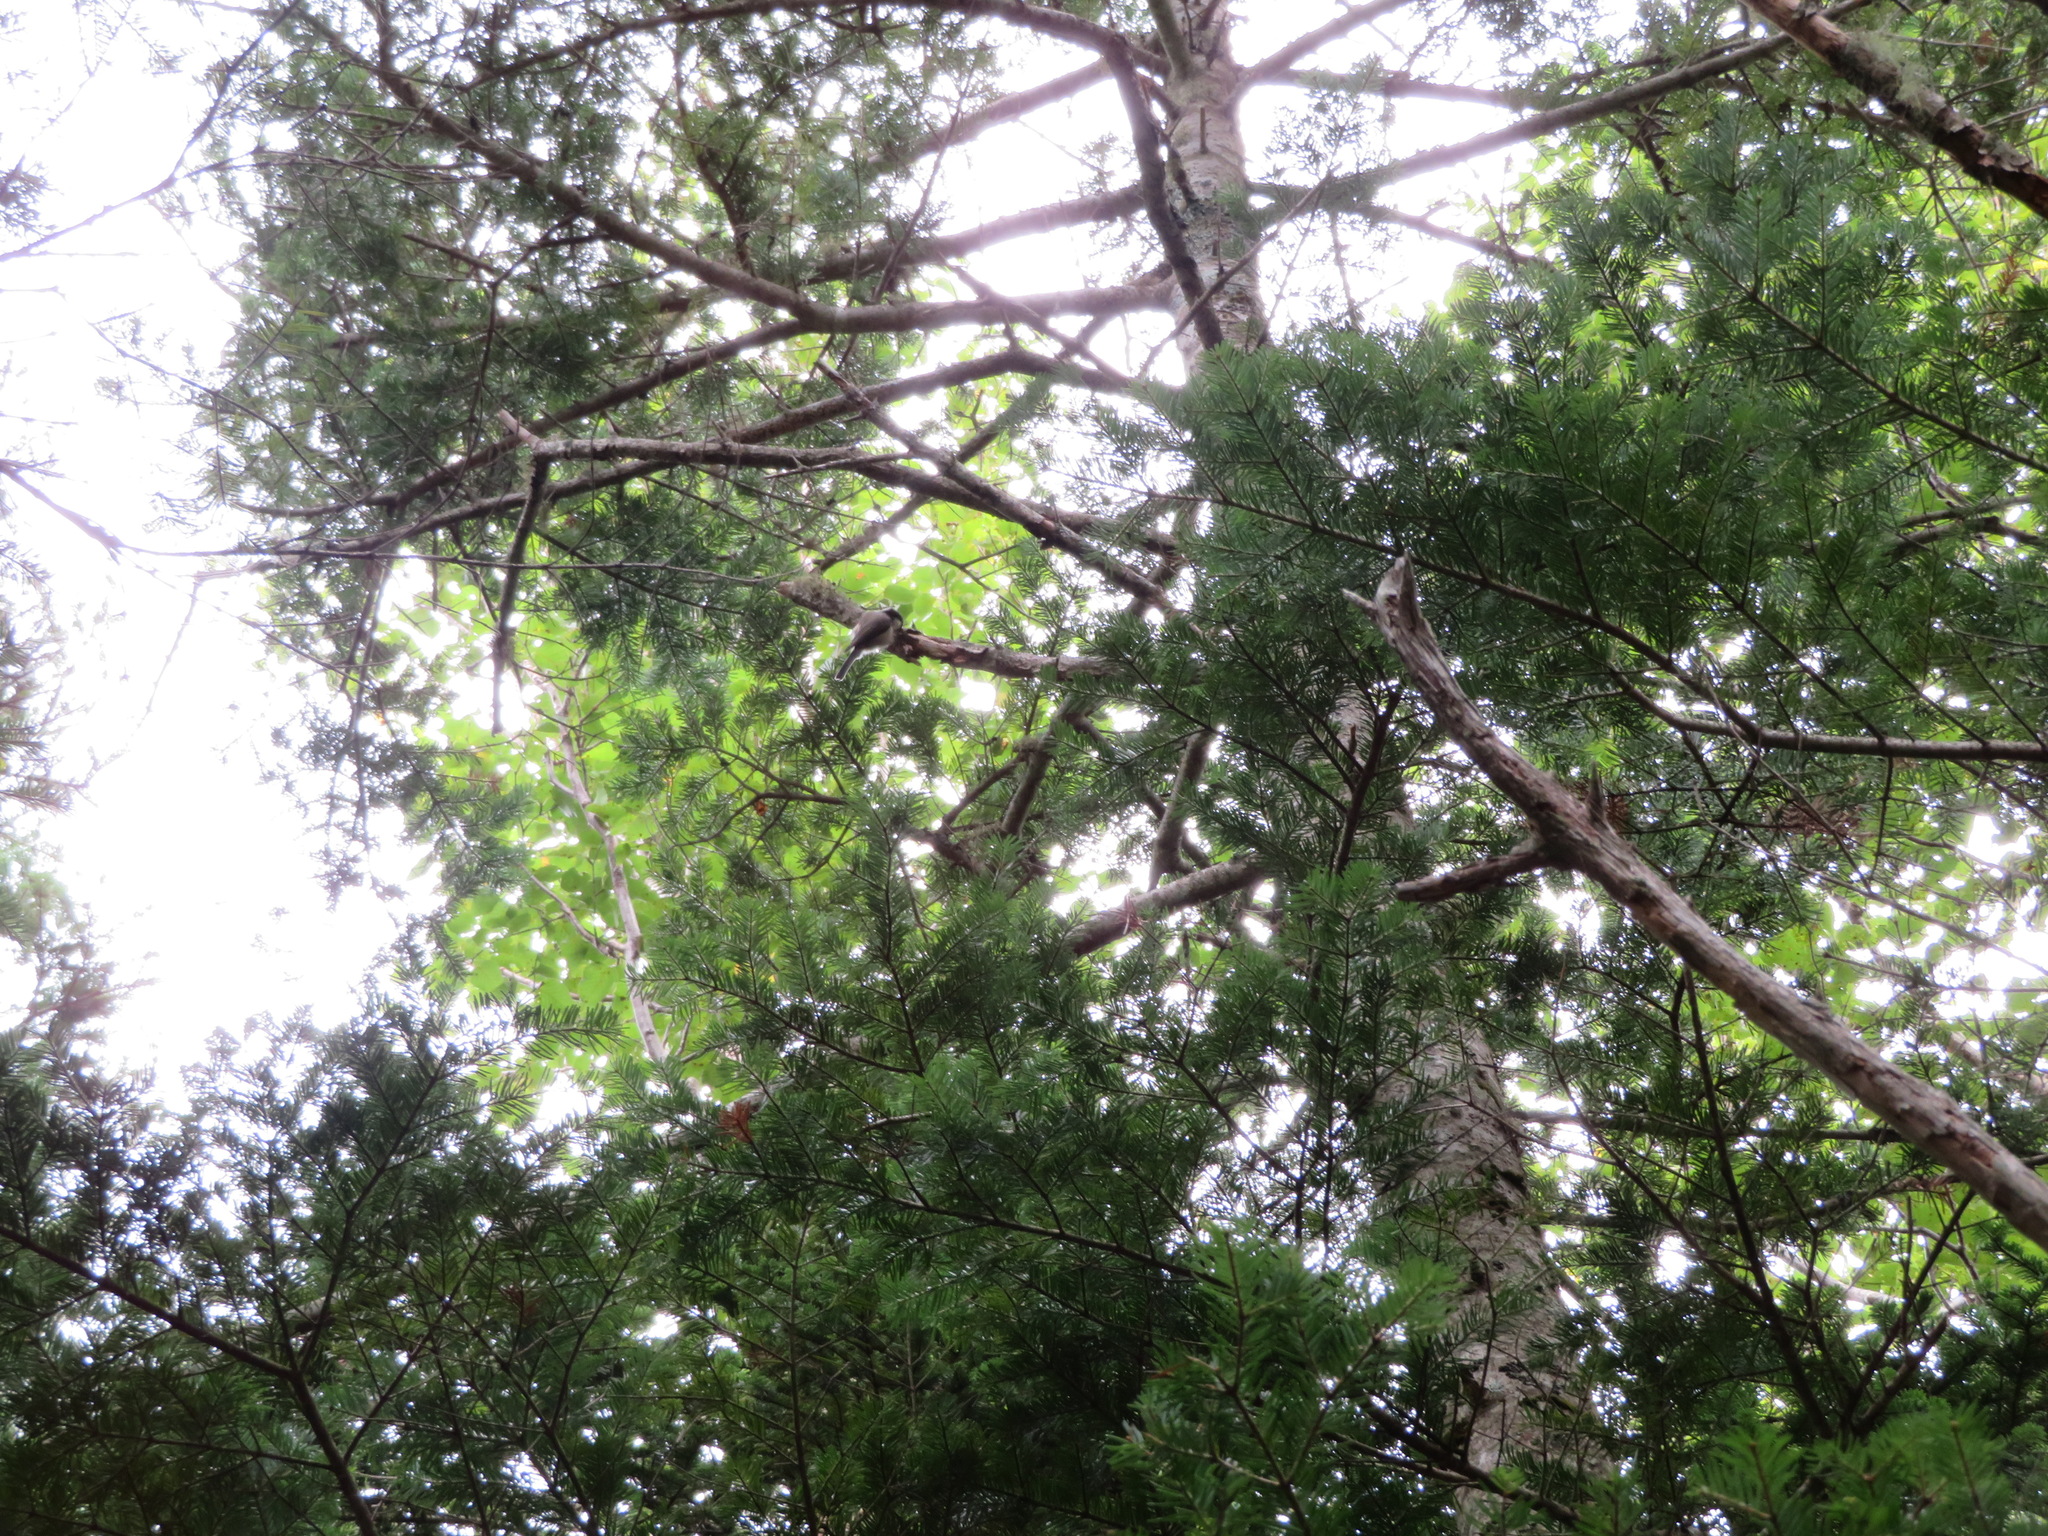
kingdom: Animalia
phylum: Chordata
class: Aves
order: Passeriformes
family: Paridae
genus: Poecile
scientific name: Poecile montanus
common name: Willow tit
